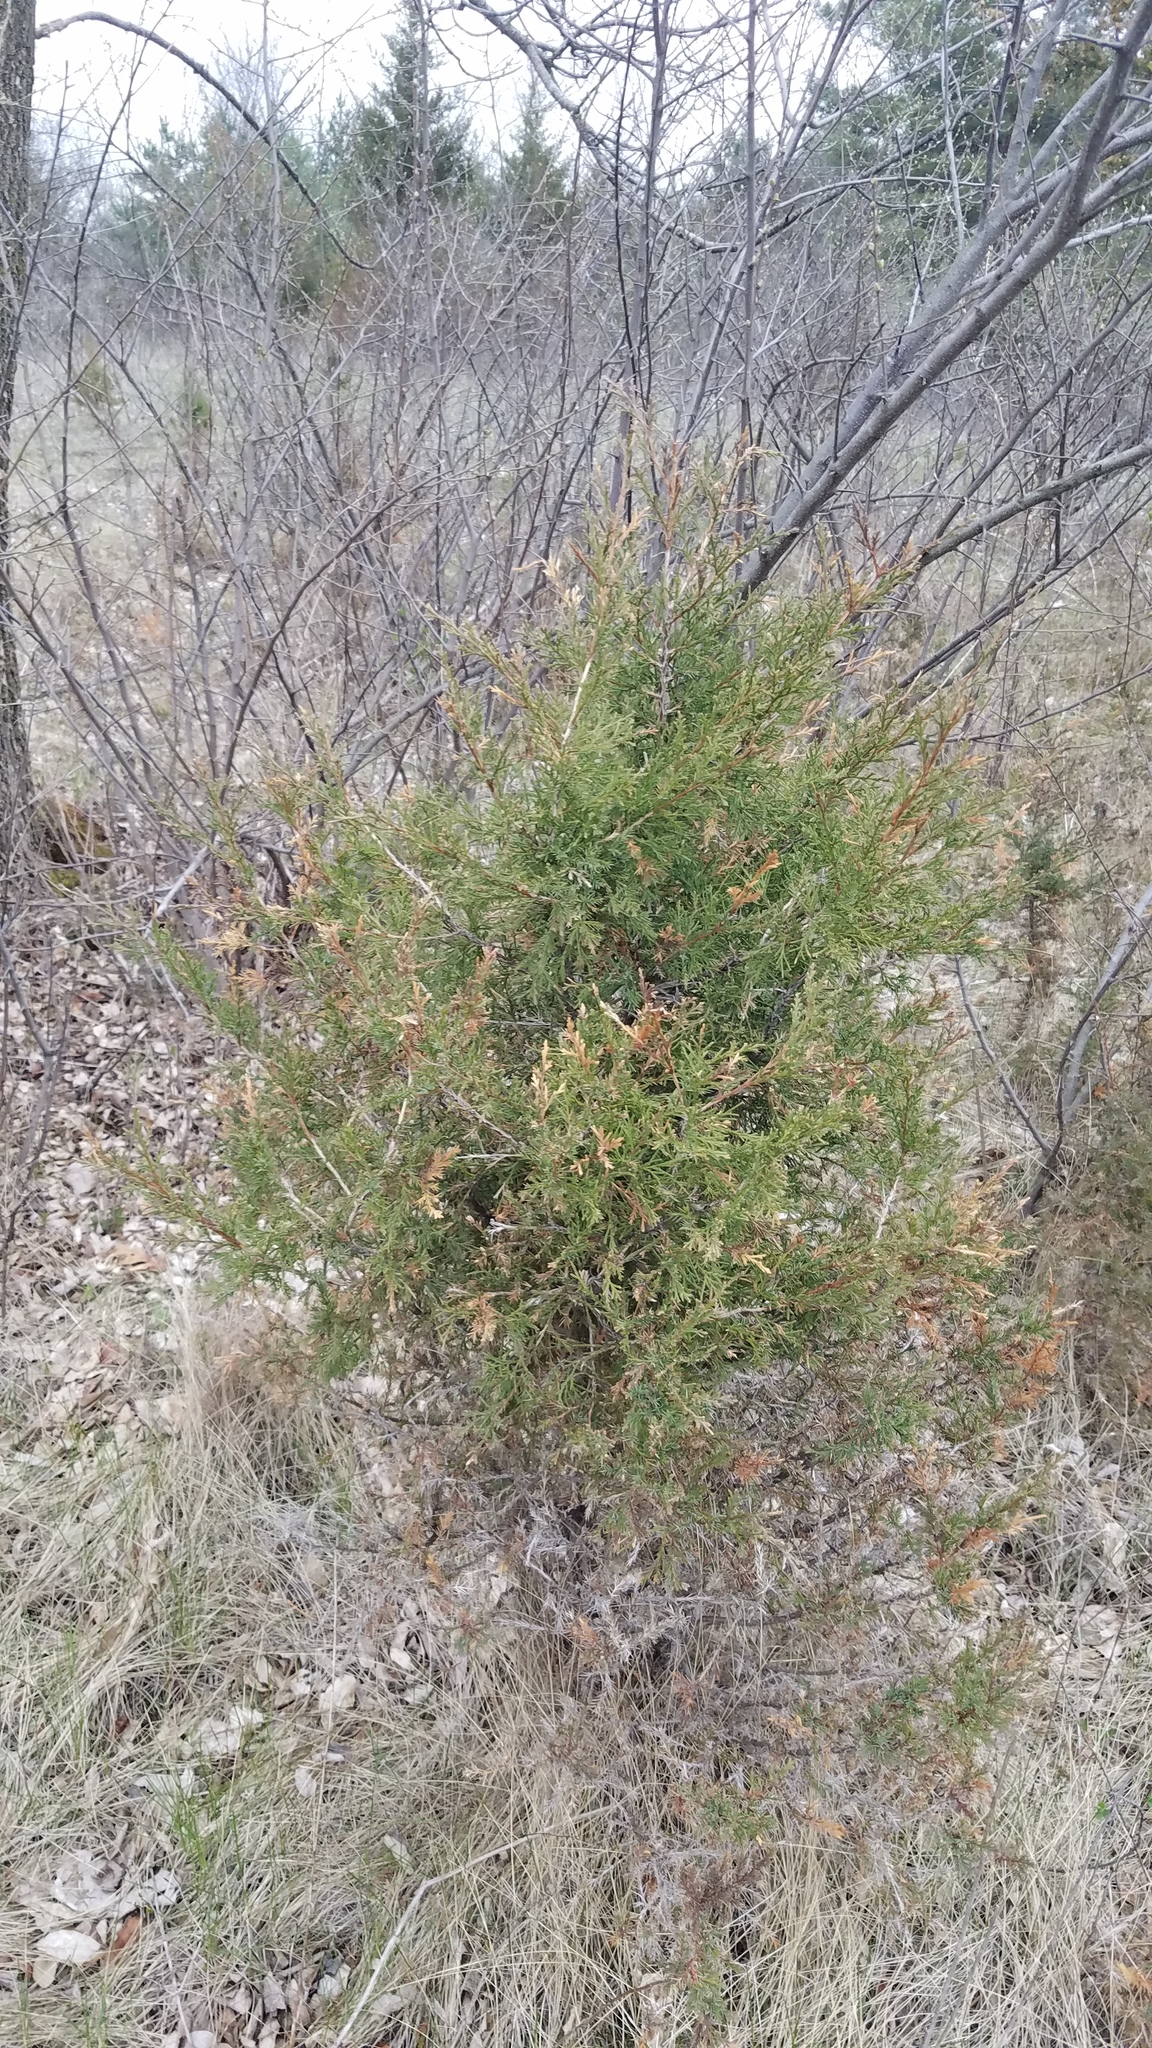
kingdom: Plantae
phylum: Tracheophyta
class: Pinopsida
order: Pinales
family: Cupressaceae
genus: Juniperus
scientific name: Juniperus virginiana
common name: Red juniper
